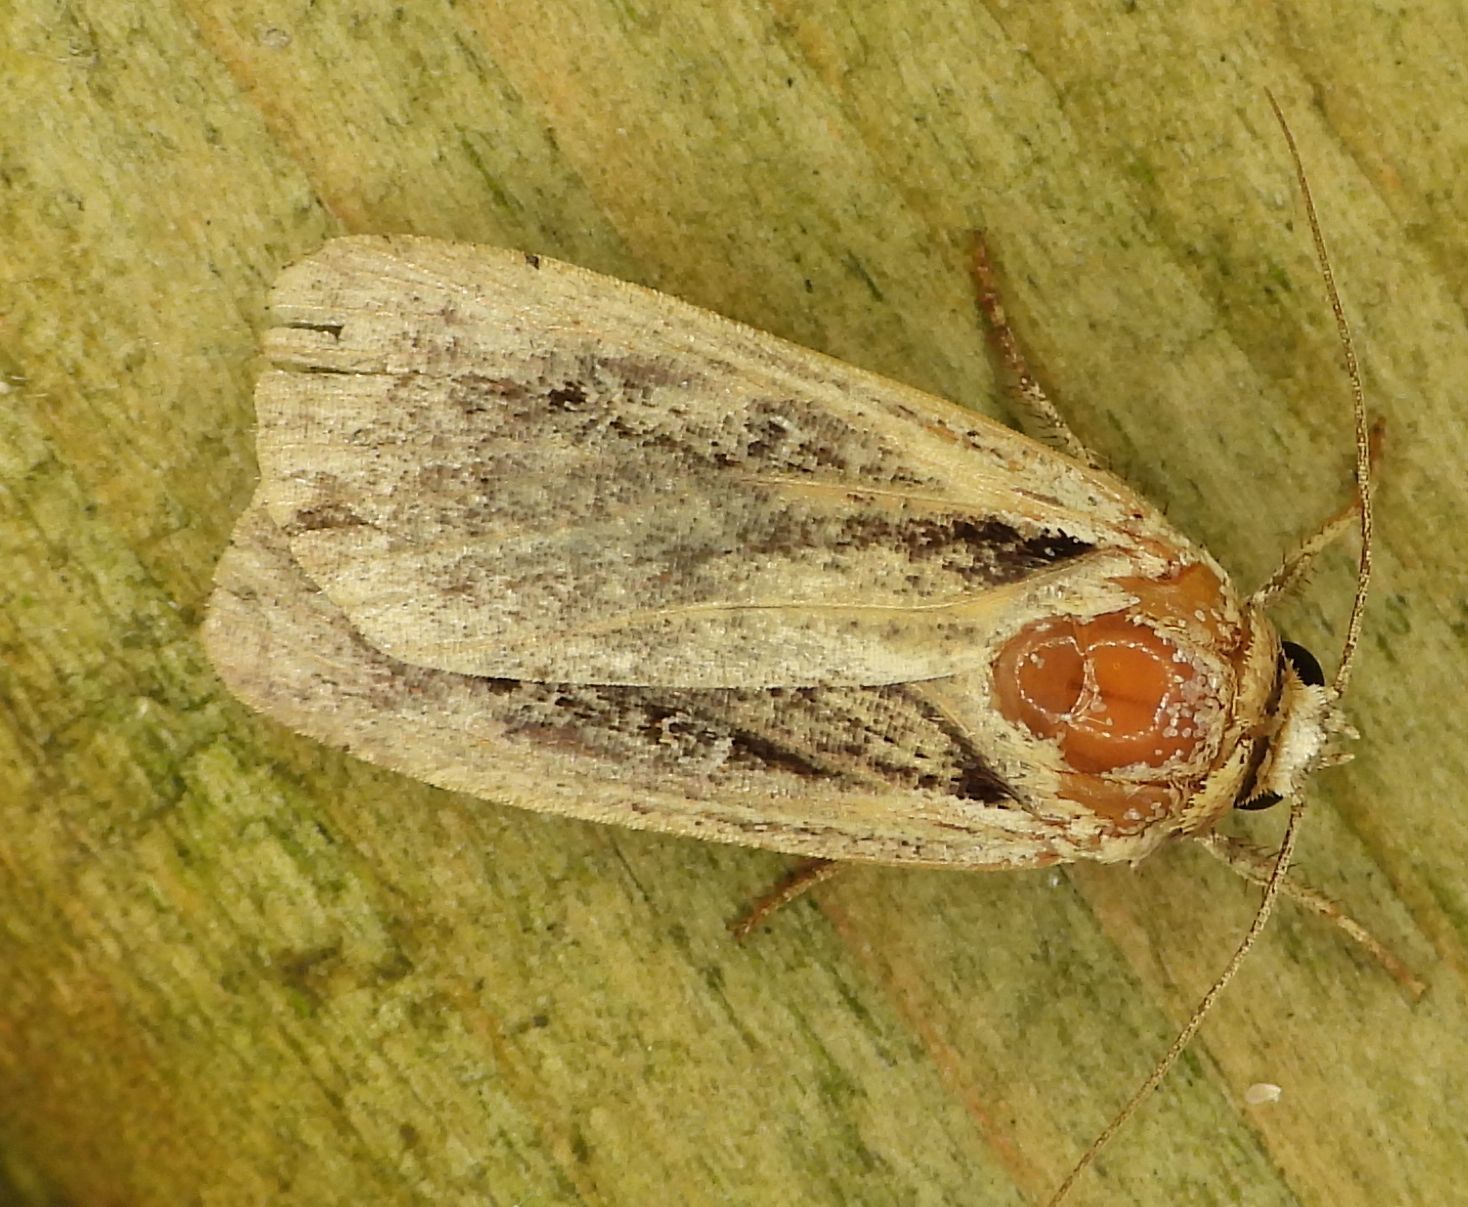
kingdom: Animalia
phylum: Arthropoda
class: Insecta
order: Lepidoptera
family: Noctuidae
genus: Ochropleura
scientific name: Ochropleura implecta
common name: Flame-shouldered dart
